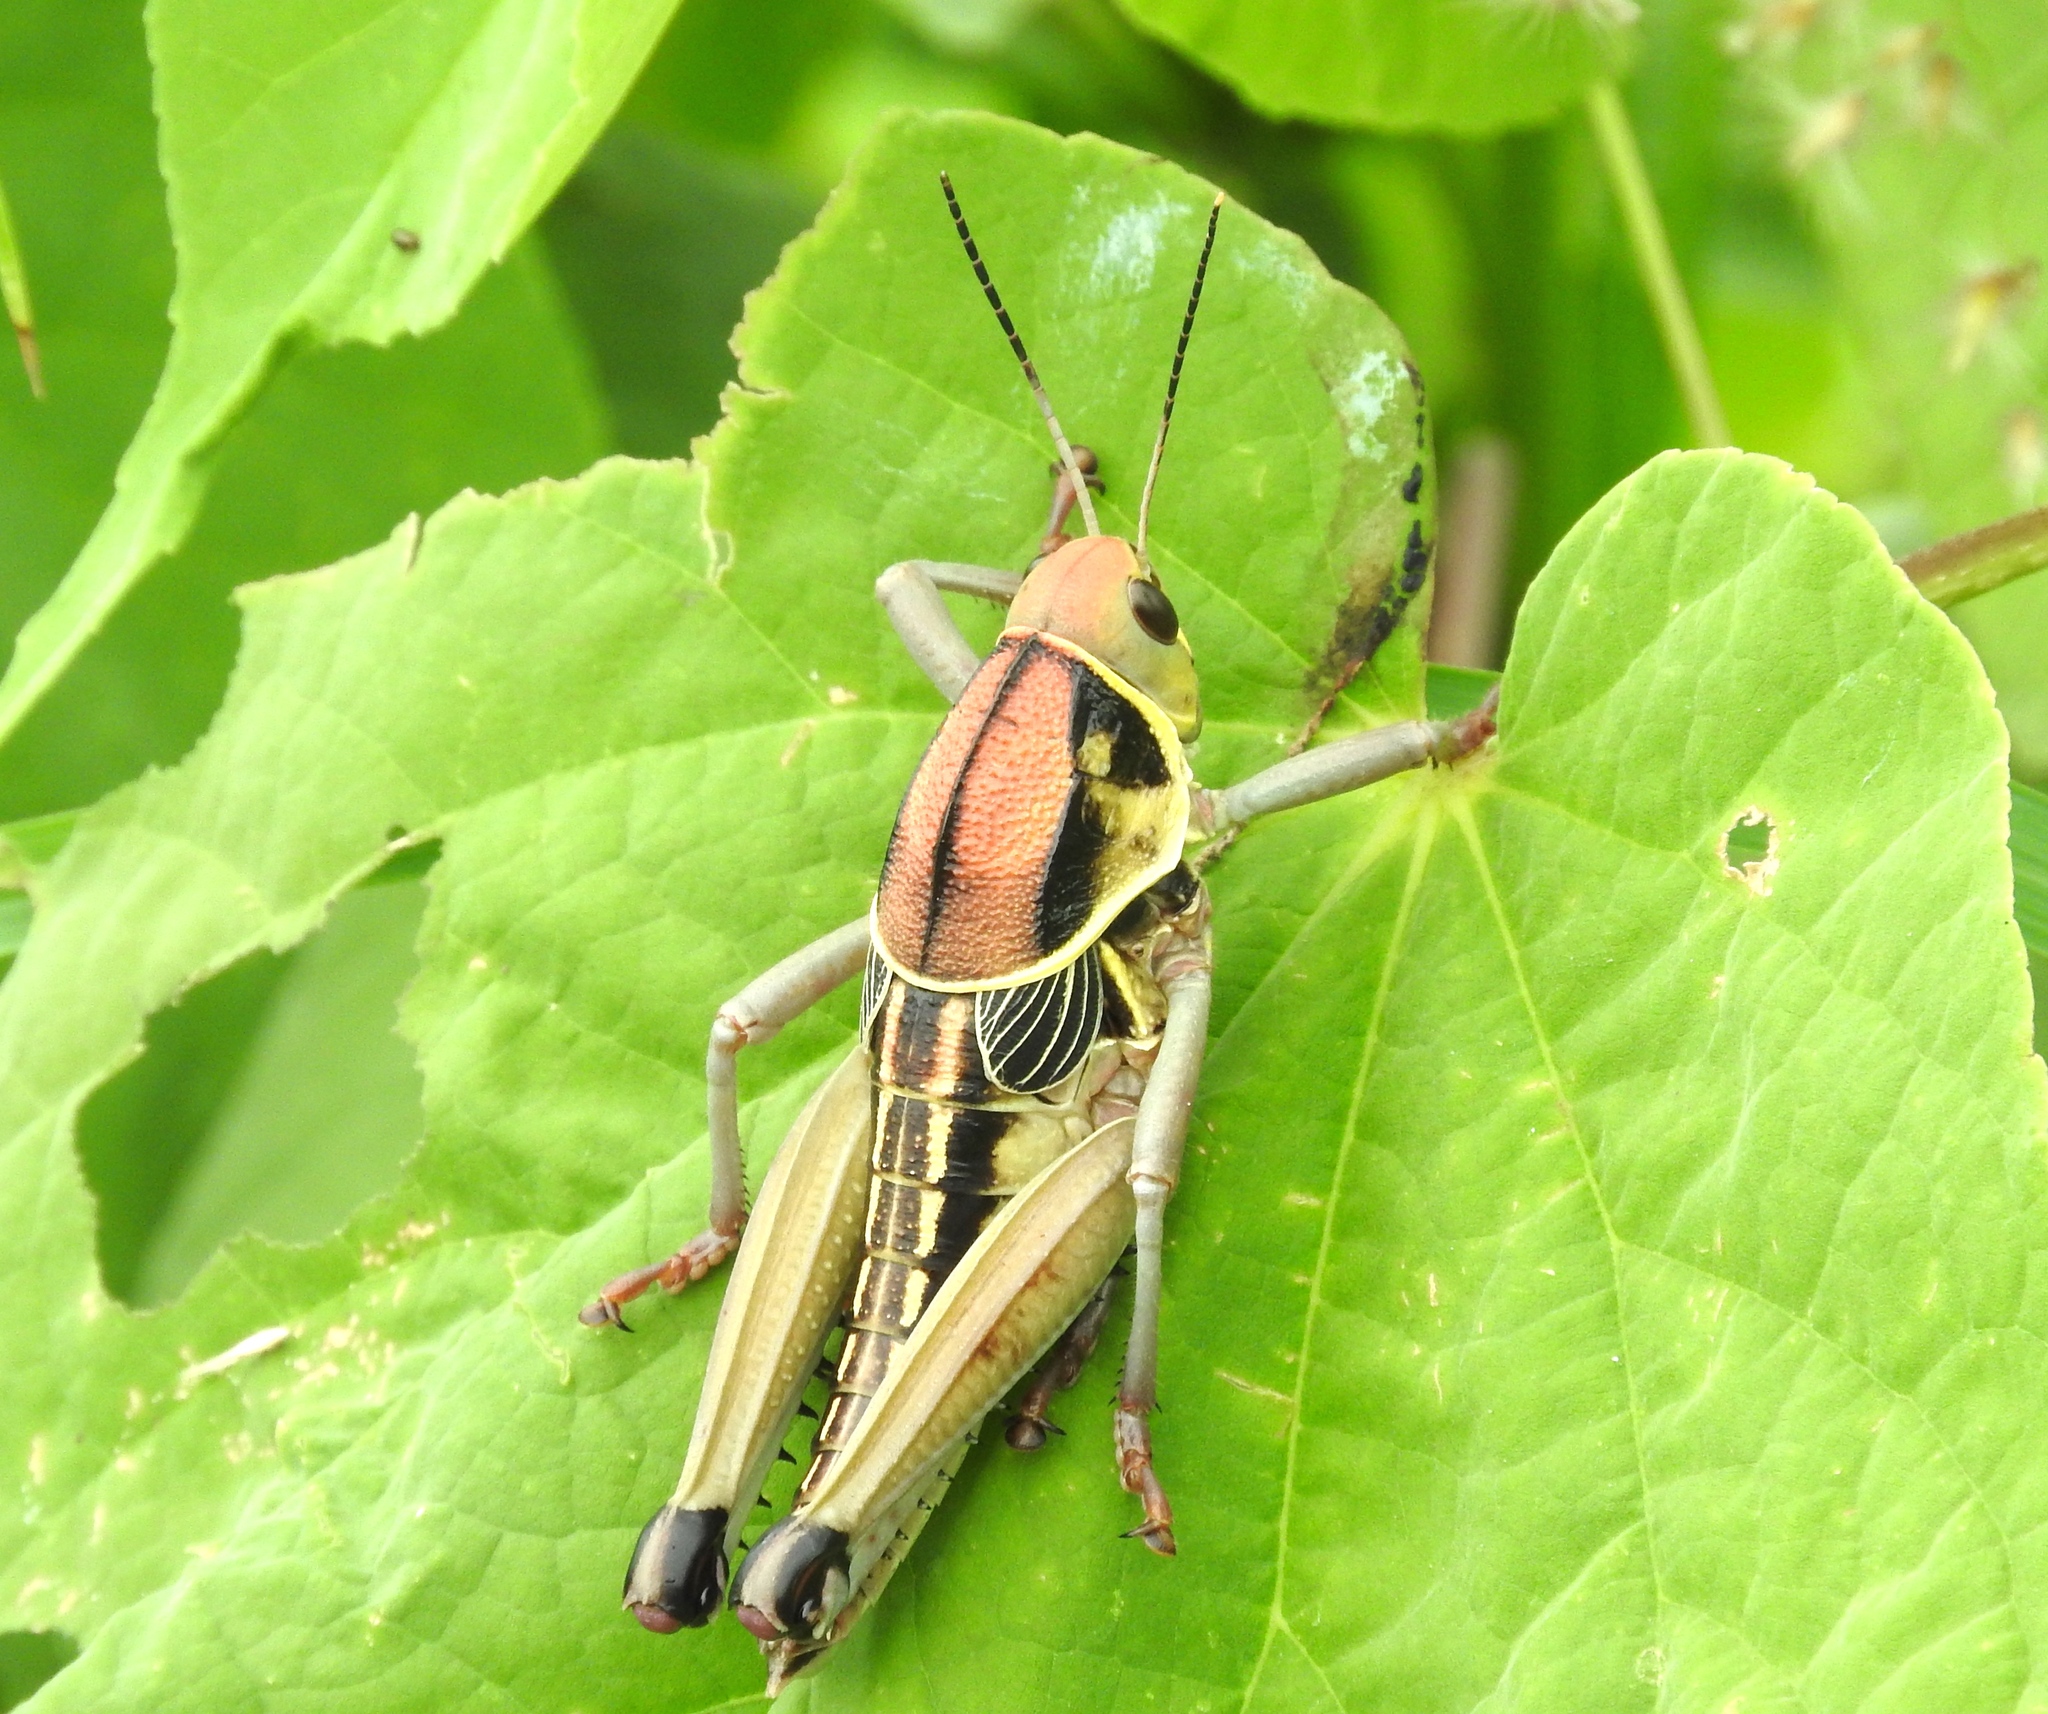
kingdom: Animalia
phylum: Arthropoda
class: Insecta
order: Orthoptera
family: Romaleidae
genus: Brachystola
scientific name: Brachystola behrensii
